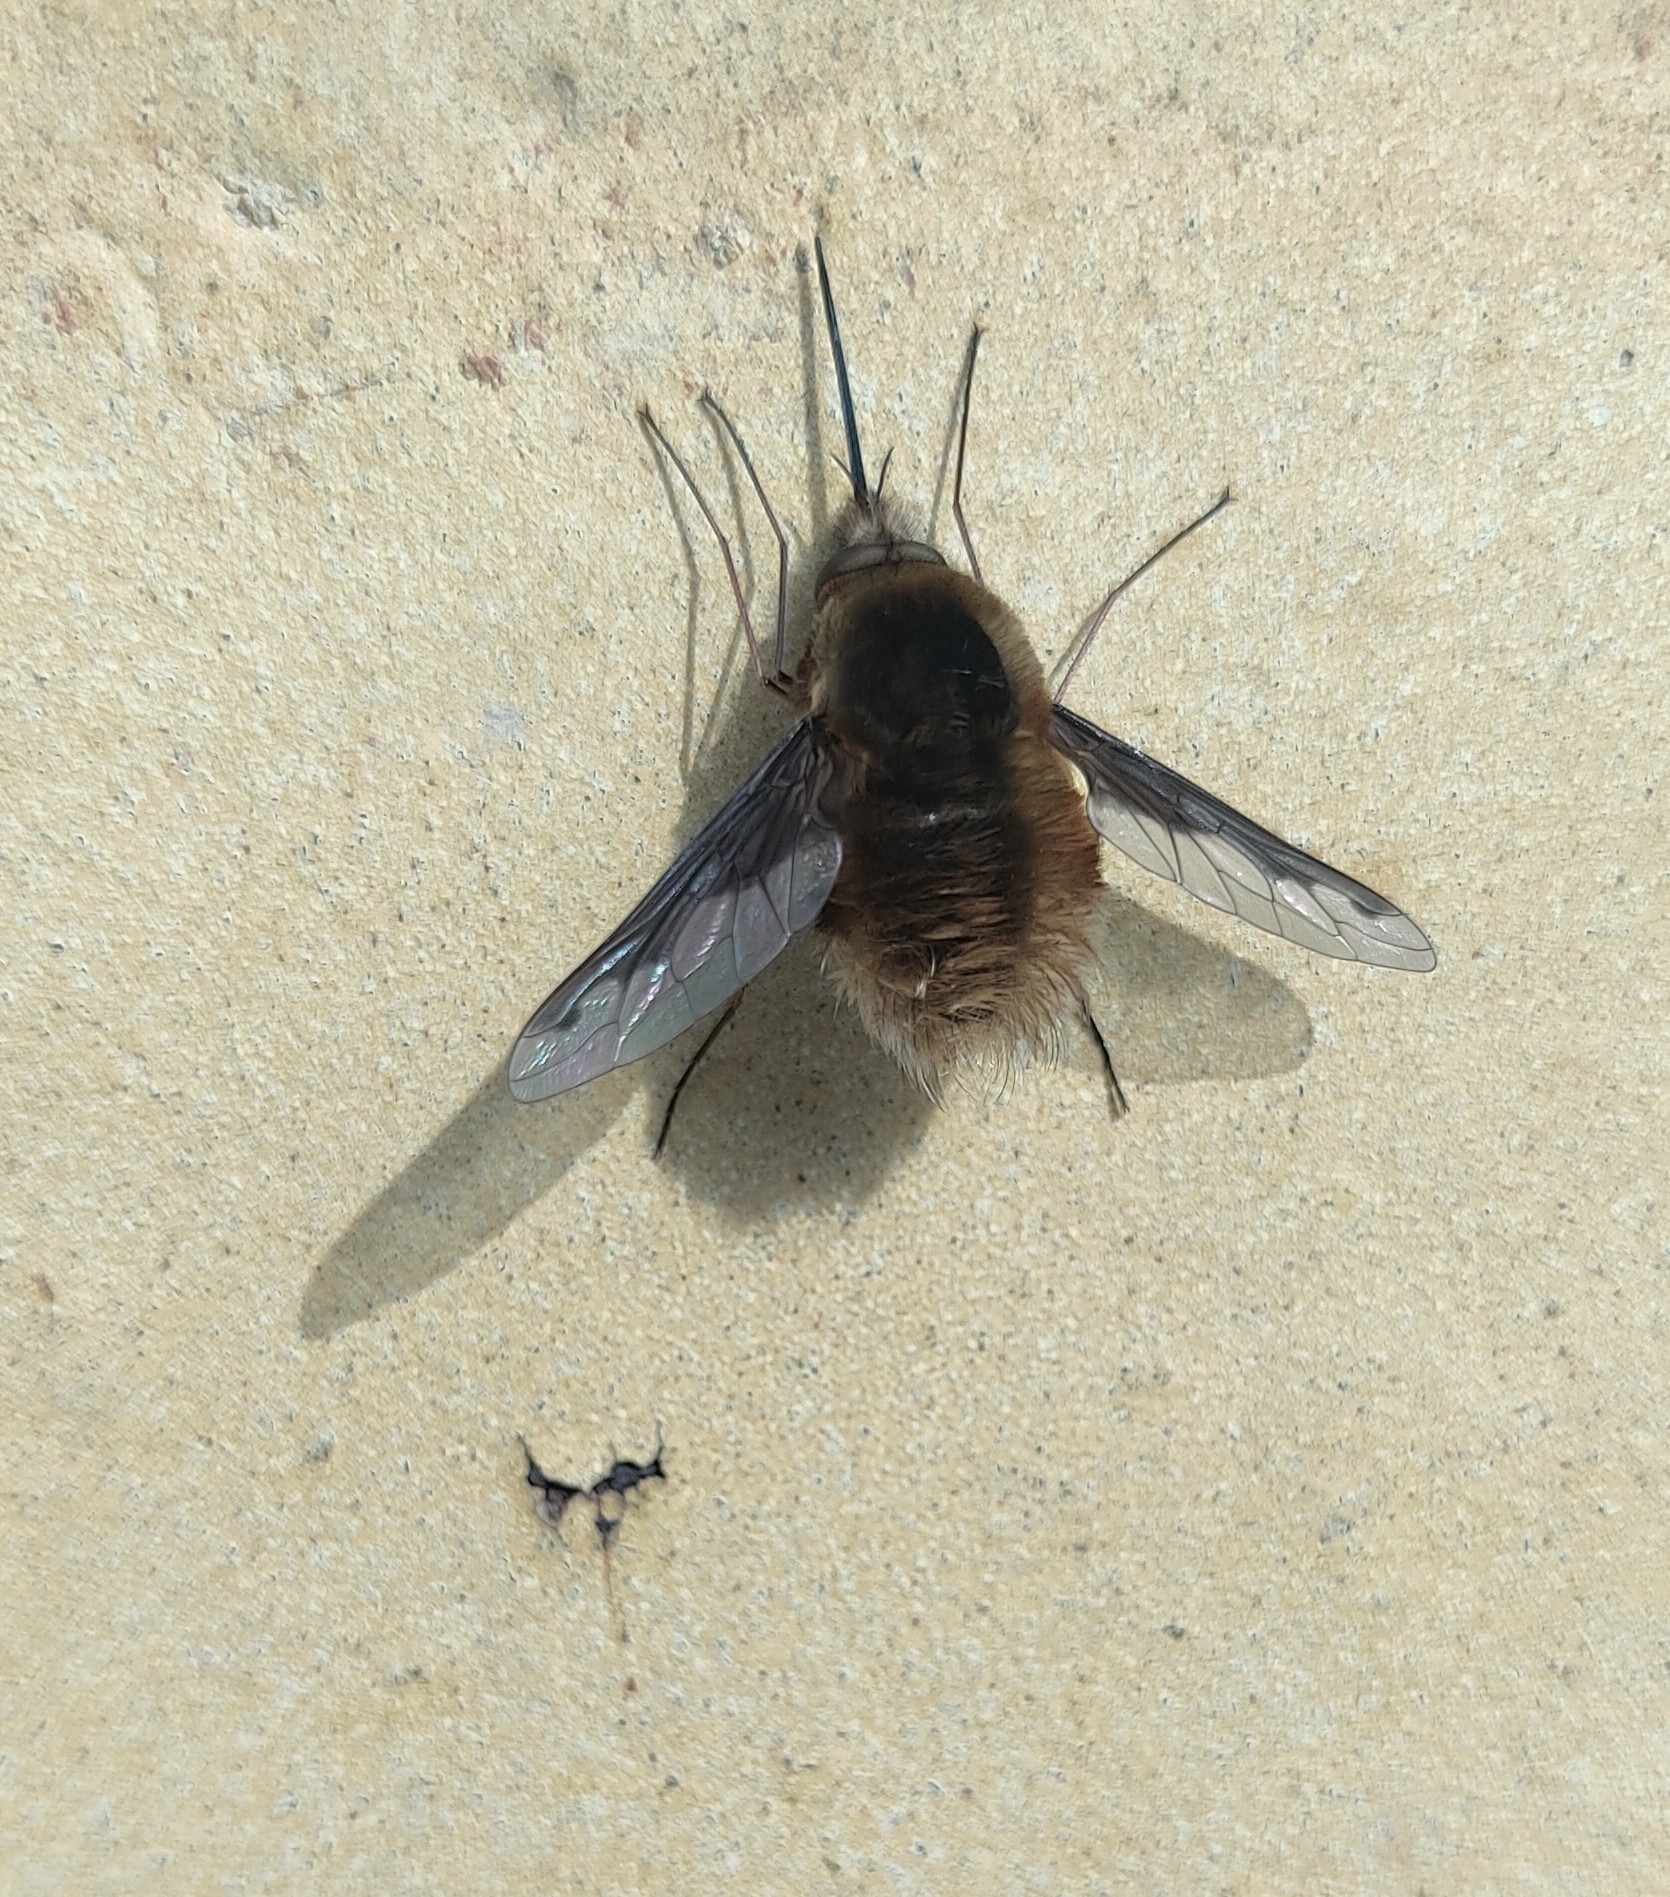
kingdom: Animalia
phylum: Arthropoda
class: Insecta
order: Diptera
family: Bombyliidae
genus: Bombylius
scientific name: Bombylius major
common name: Bee fly
